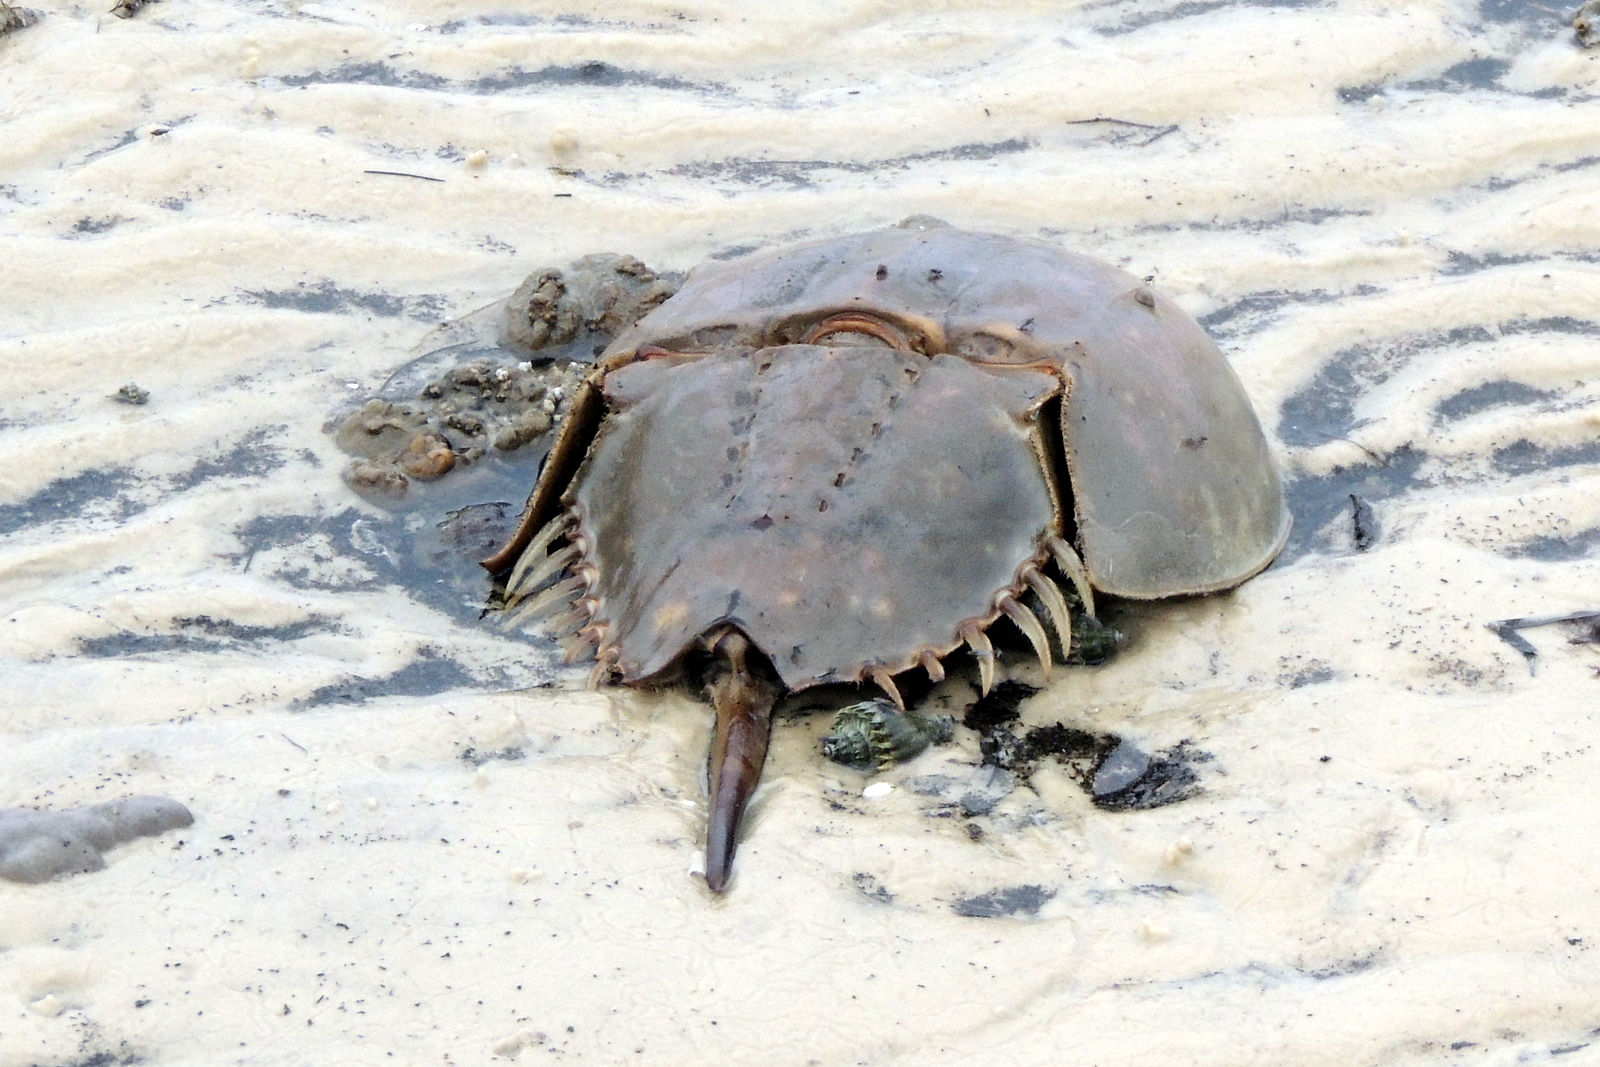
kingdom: Animalia
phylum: Arthropoda
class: Merostomata
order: Xiphosurida
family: Limulidae
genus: Limulus
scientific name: Limulus polyphemus
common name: Horseshoe crab
